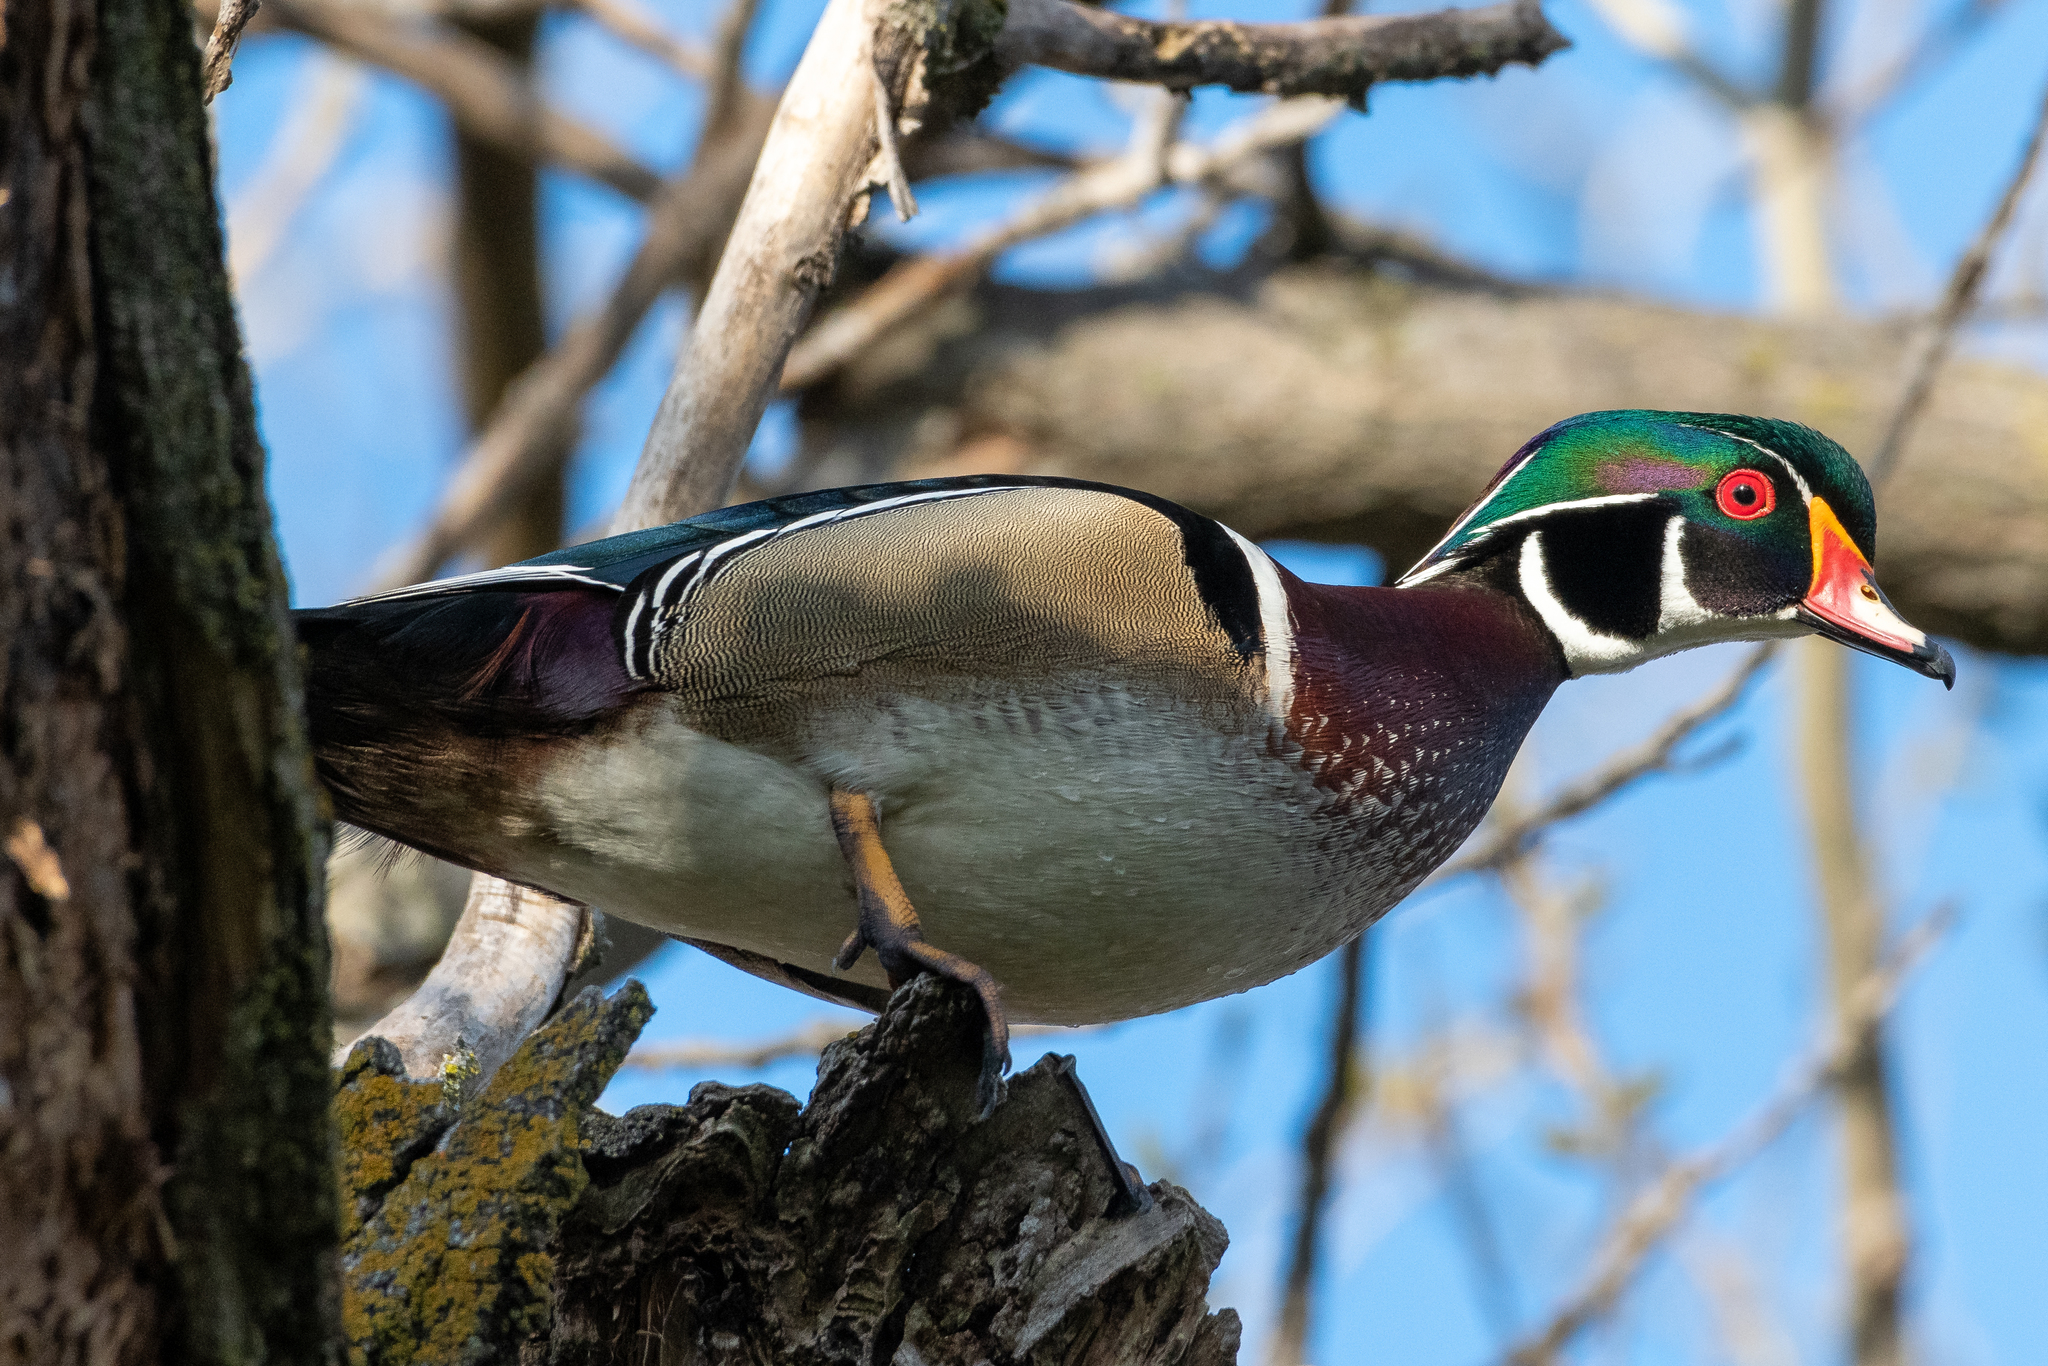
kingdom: Animalia
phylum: Chordata
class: Aves
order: Anseriformes
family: Anatidae
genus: Aix
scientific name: Aix sponsa
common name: Wood duck
